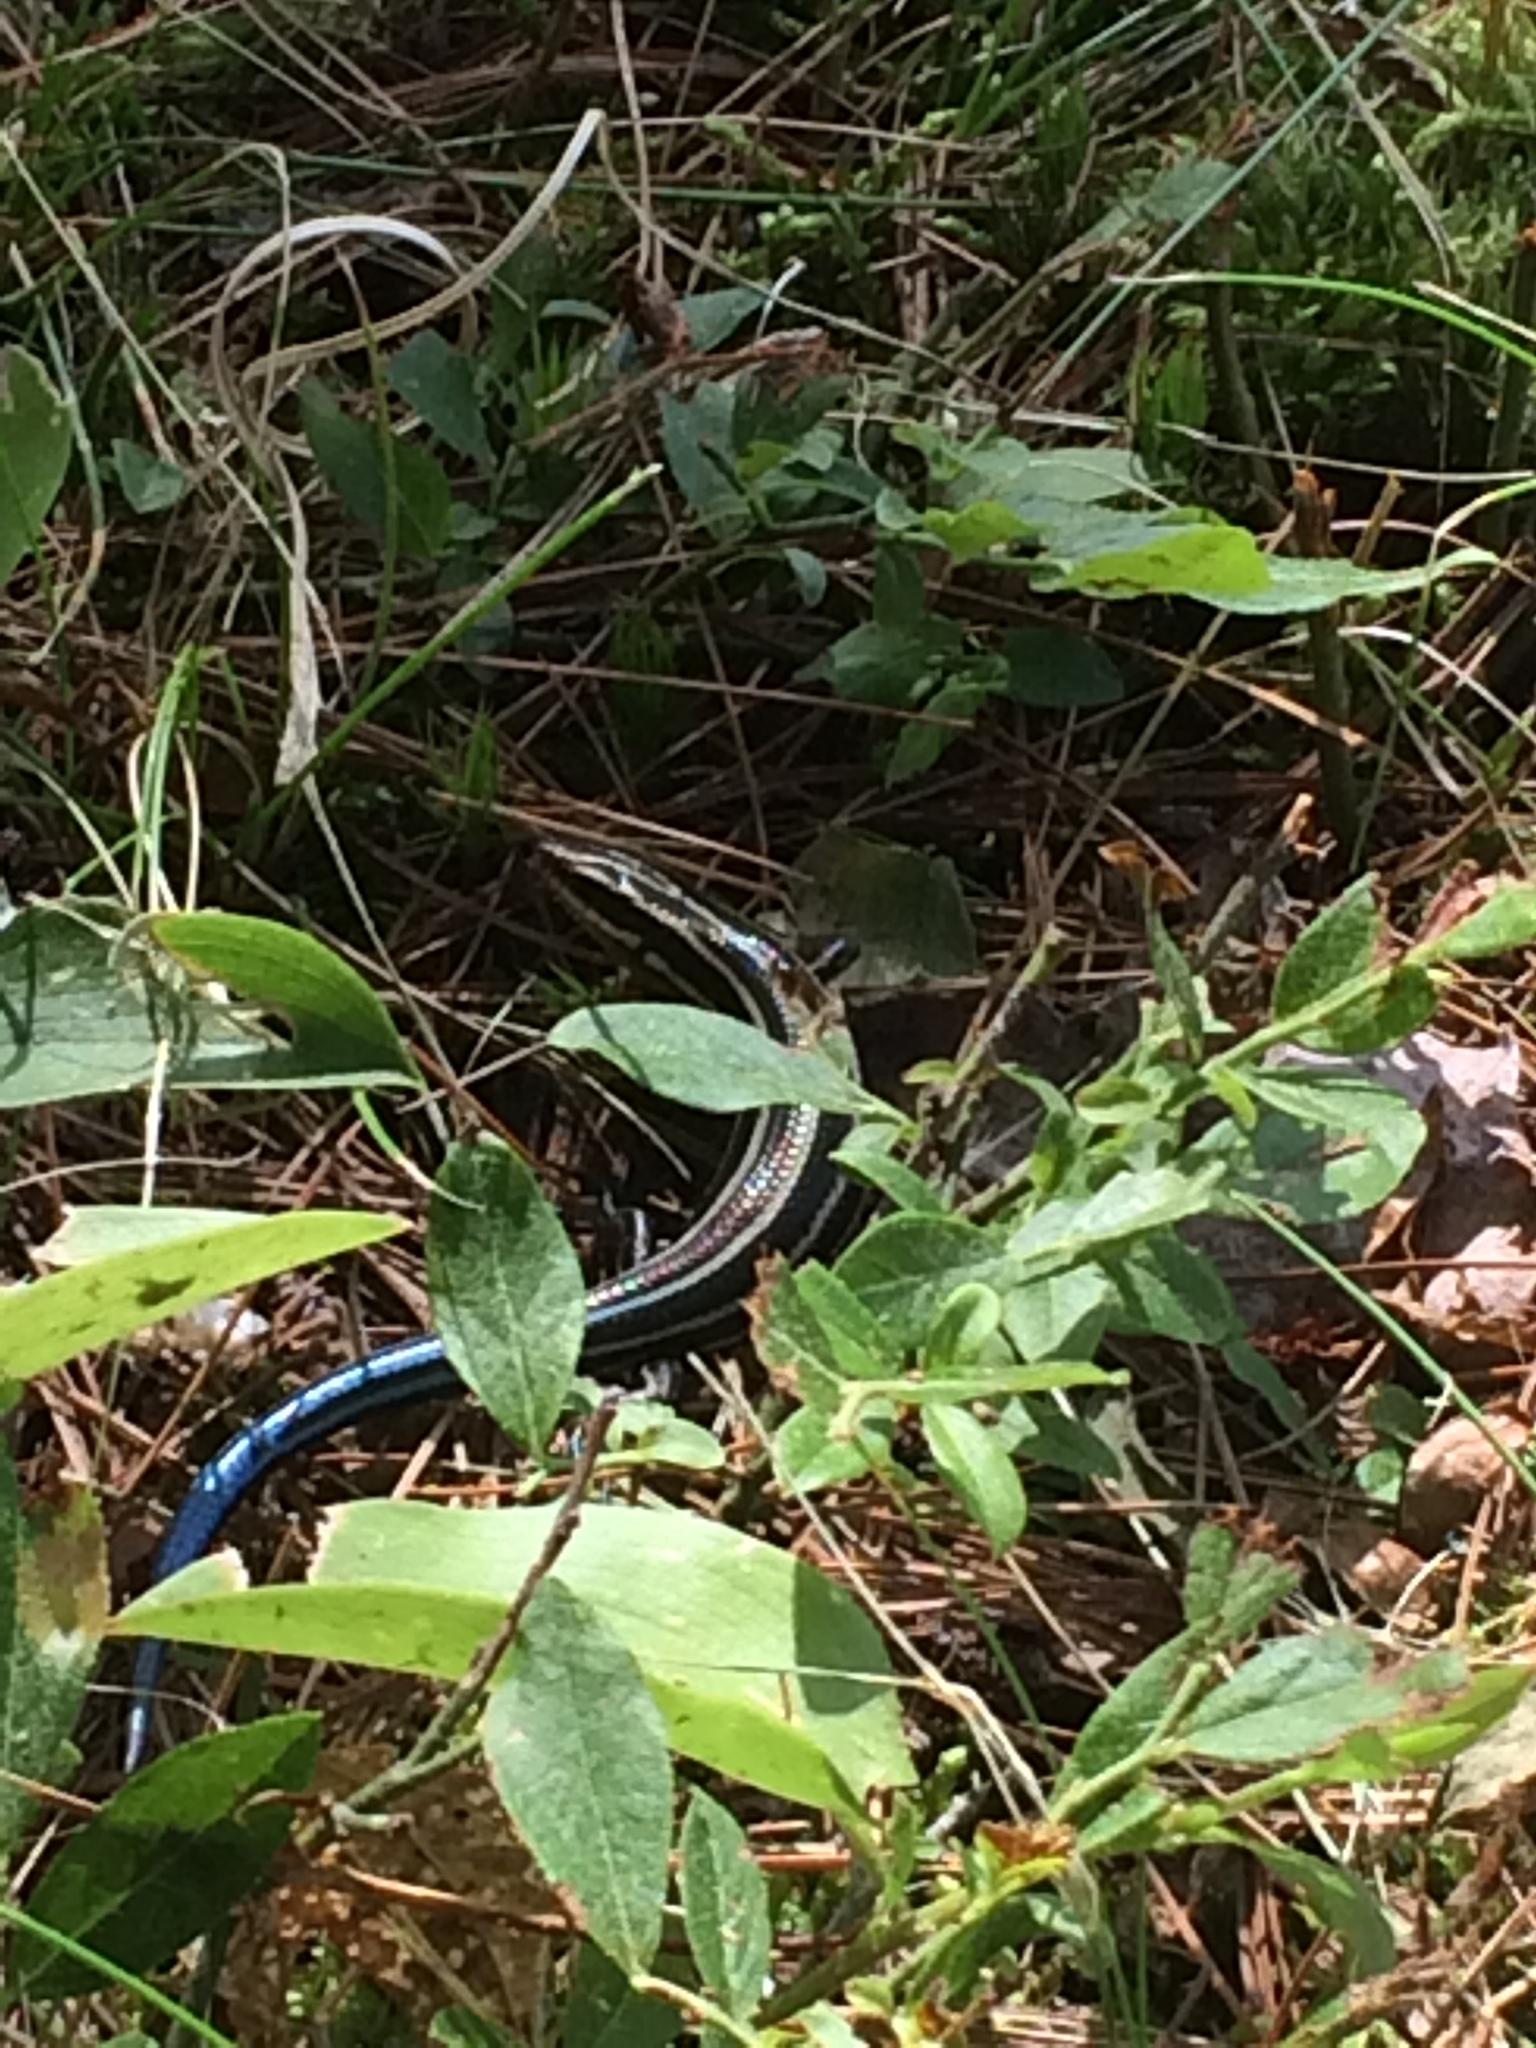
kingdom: Animalia
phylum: Chordata
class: Squamata
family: Scincidae
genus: Plestiodon
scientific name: Plestiodon fasciatus
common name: Five-lined skink
